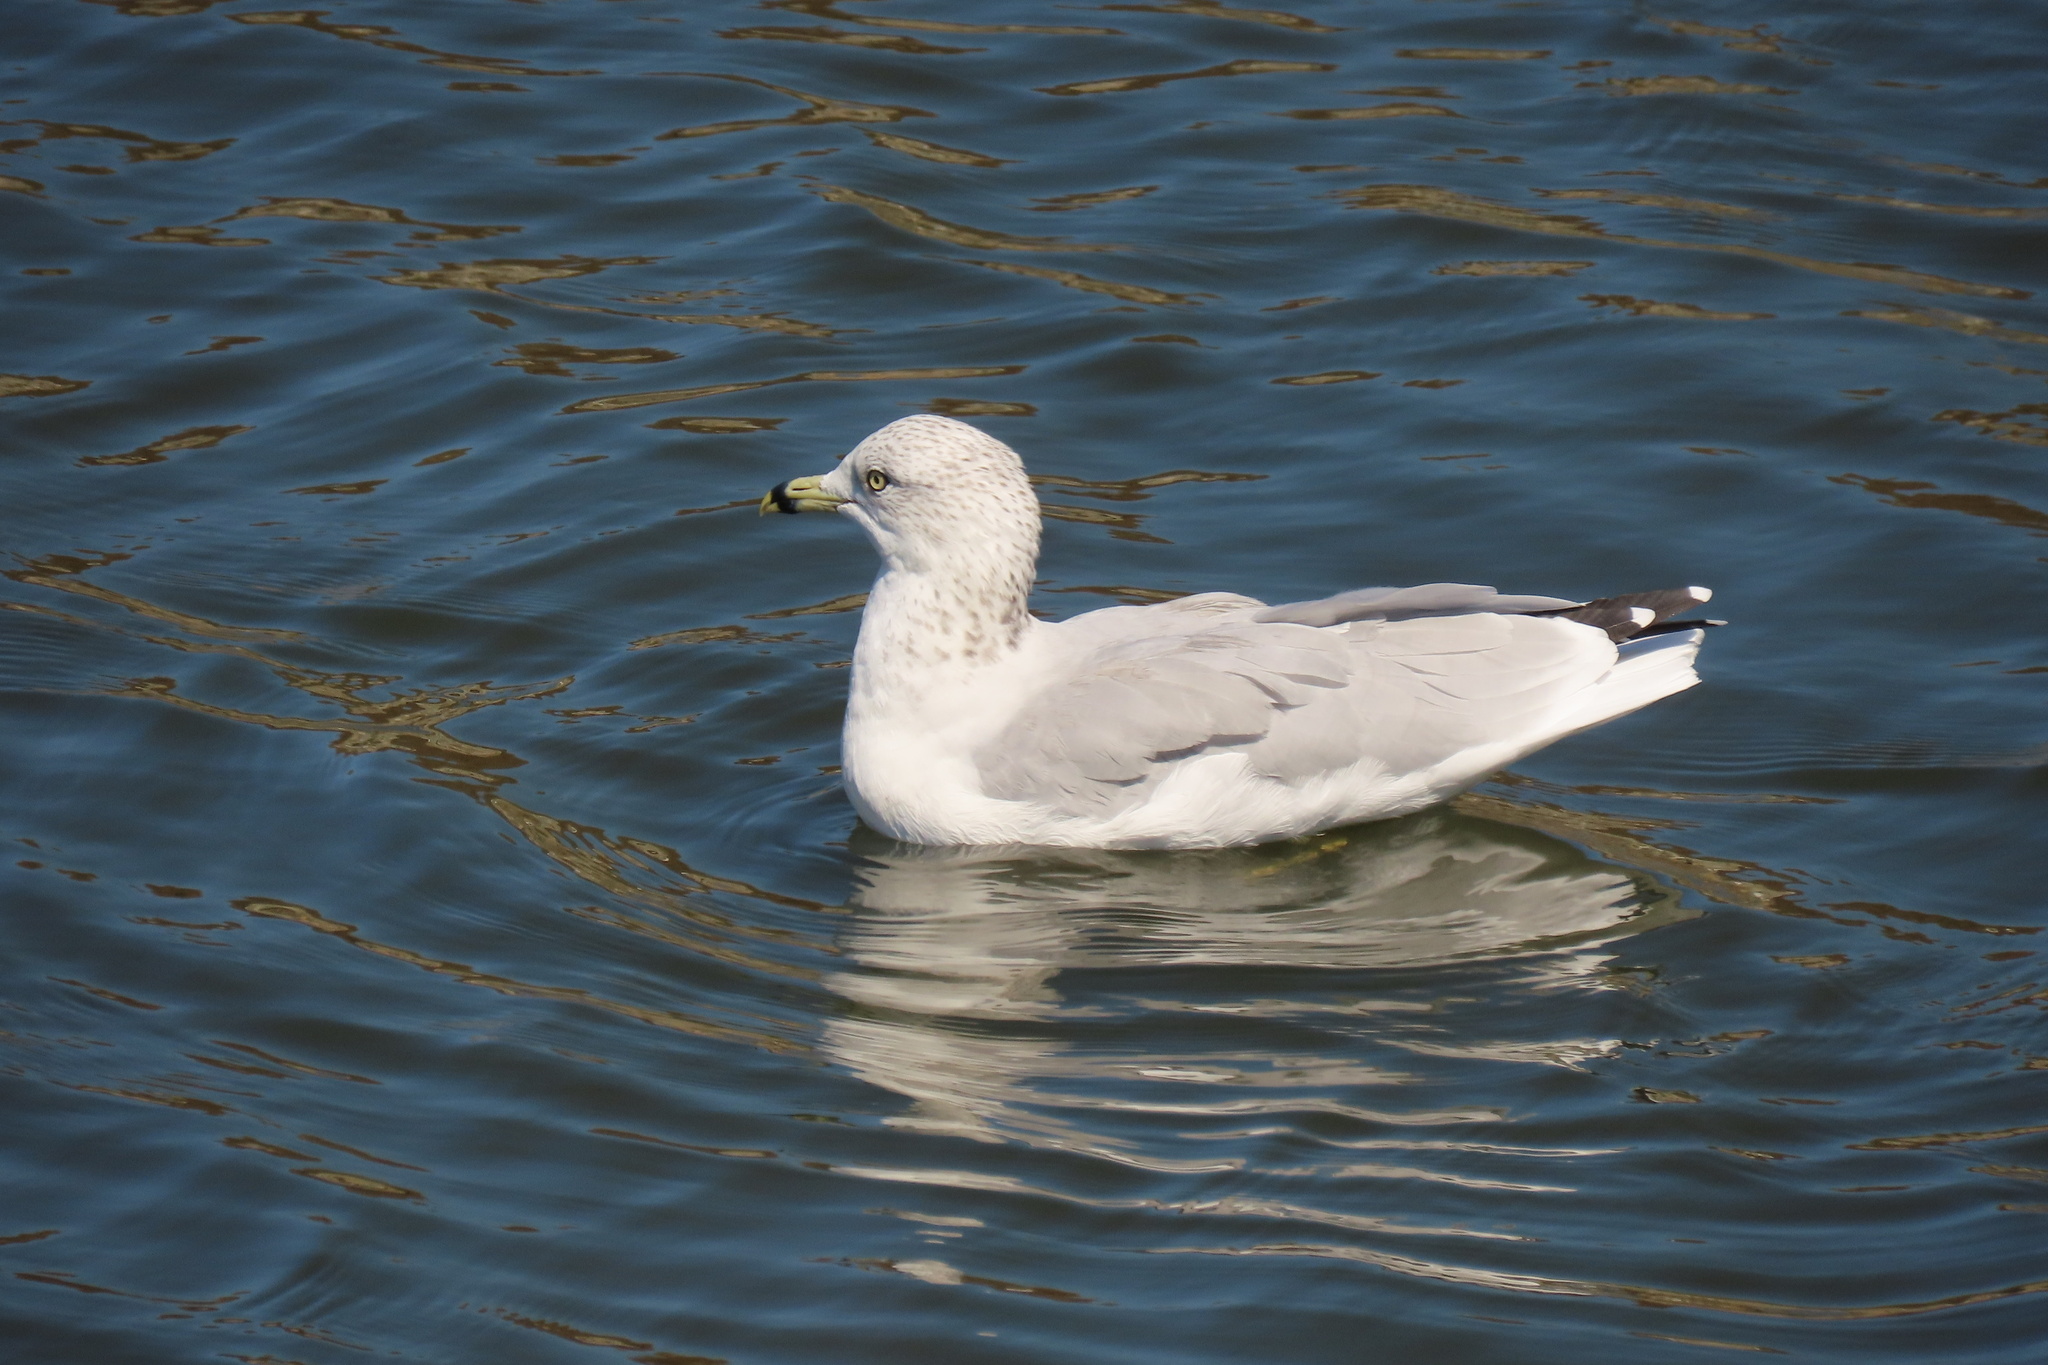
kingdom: Animalia
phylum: Chordata
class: Aves
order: Charadriiformes
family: Laridae
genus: Larus
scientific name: Larus delawarensis
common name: Ring-billed gull
